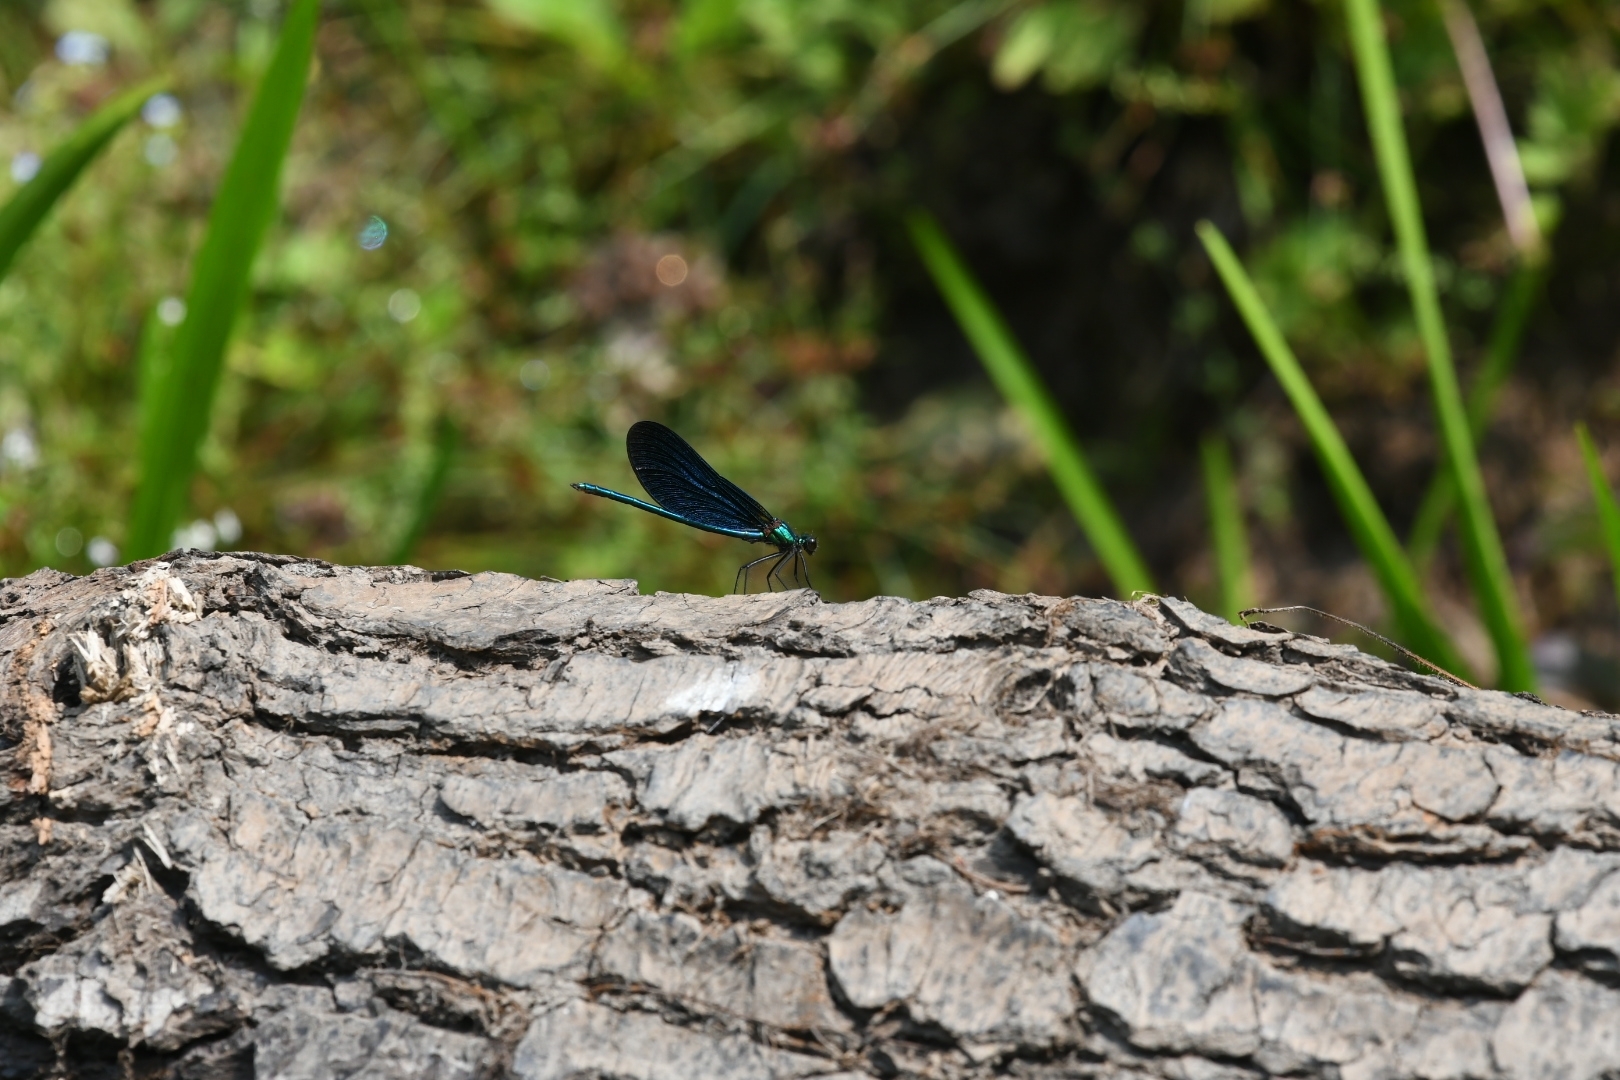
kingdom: Animalia
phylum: Arthropoda
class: Insecta
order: Odonata
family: Calopterygidae
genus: Calopteryx
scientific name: Calopteryx virgo
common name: Beautiful demoiselle
